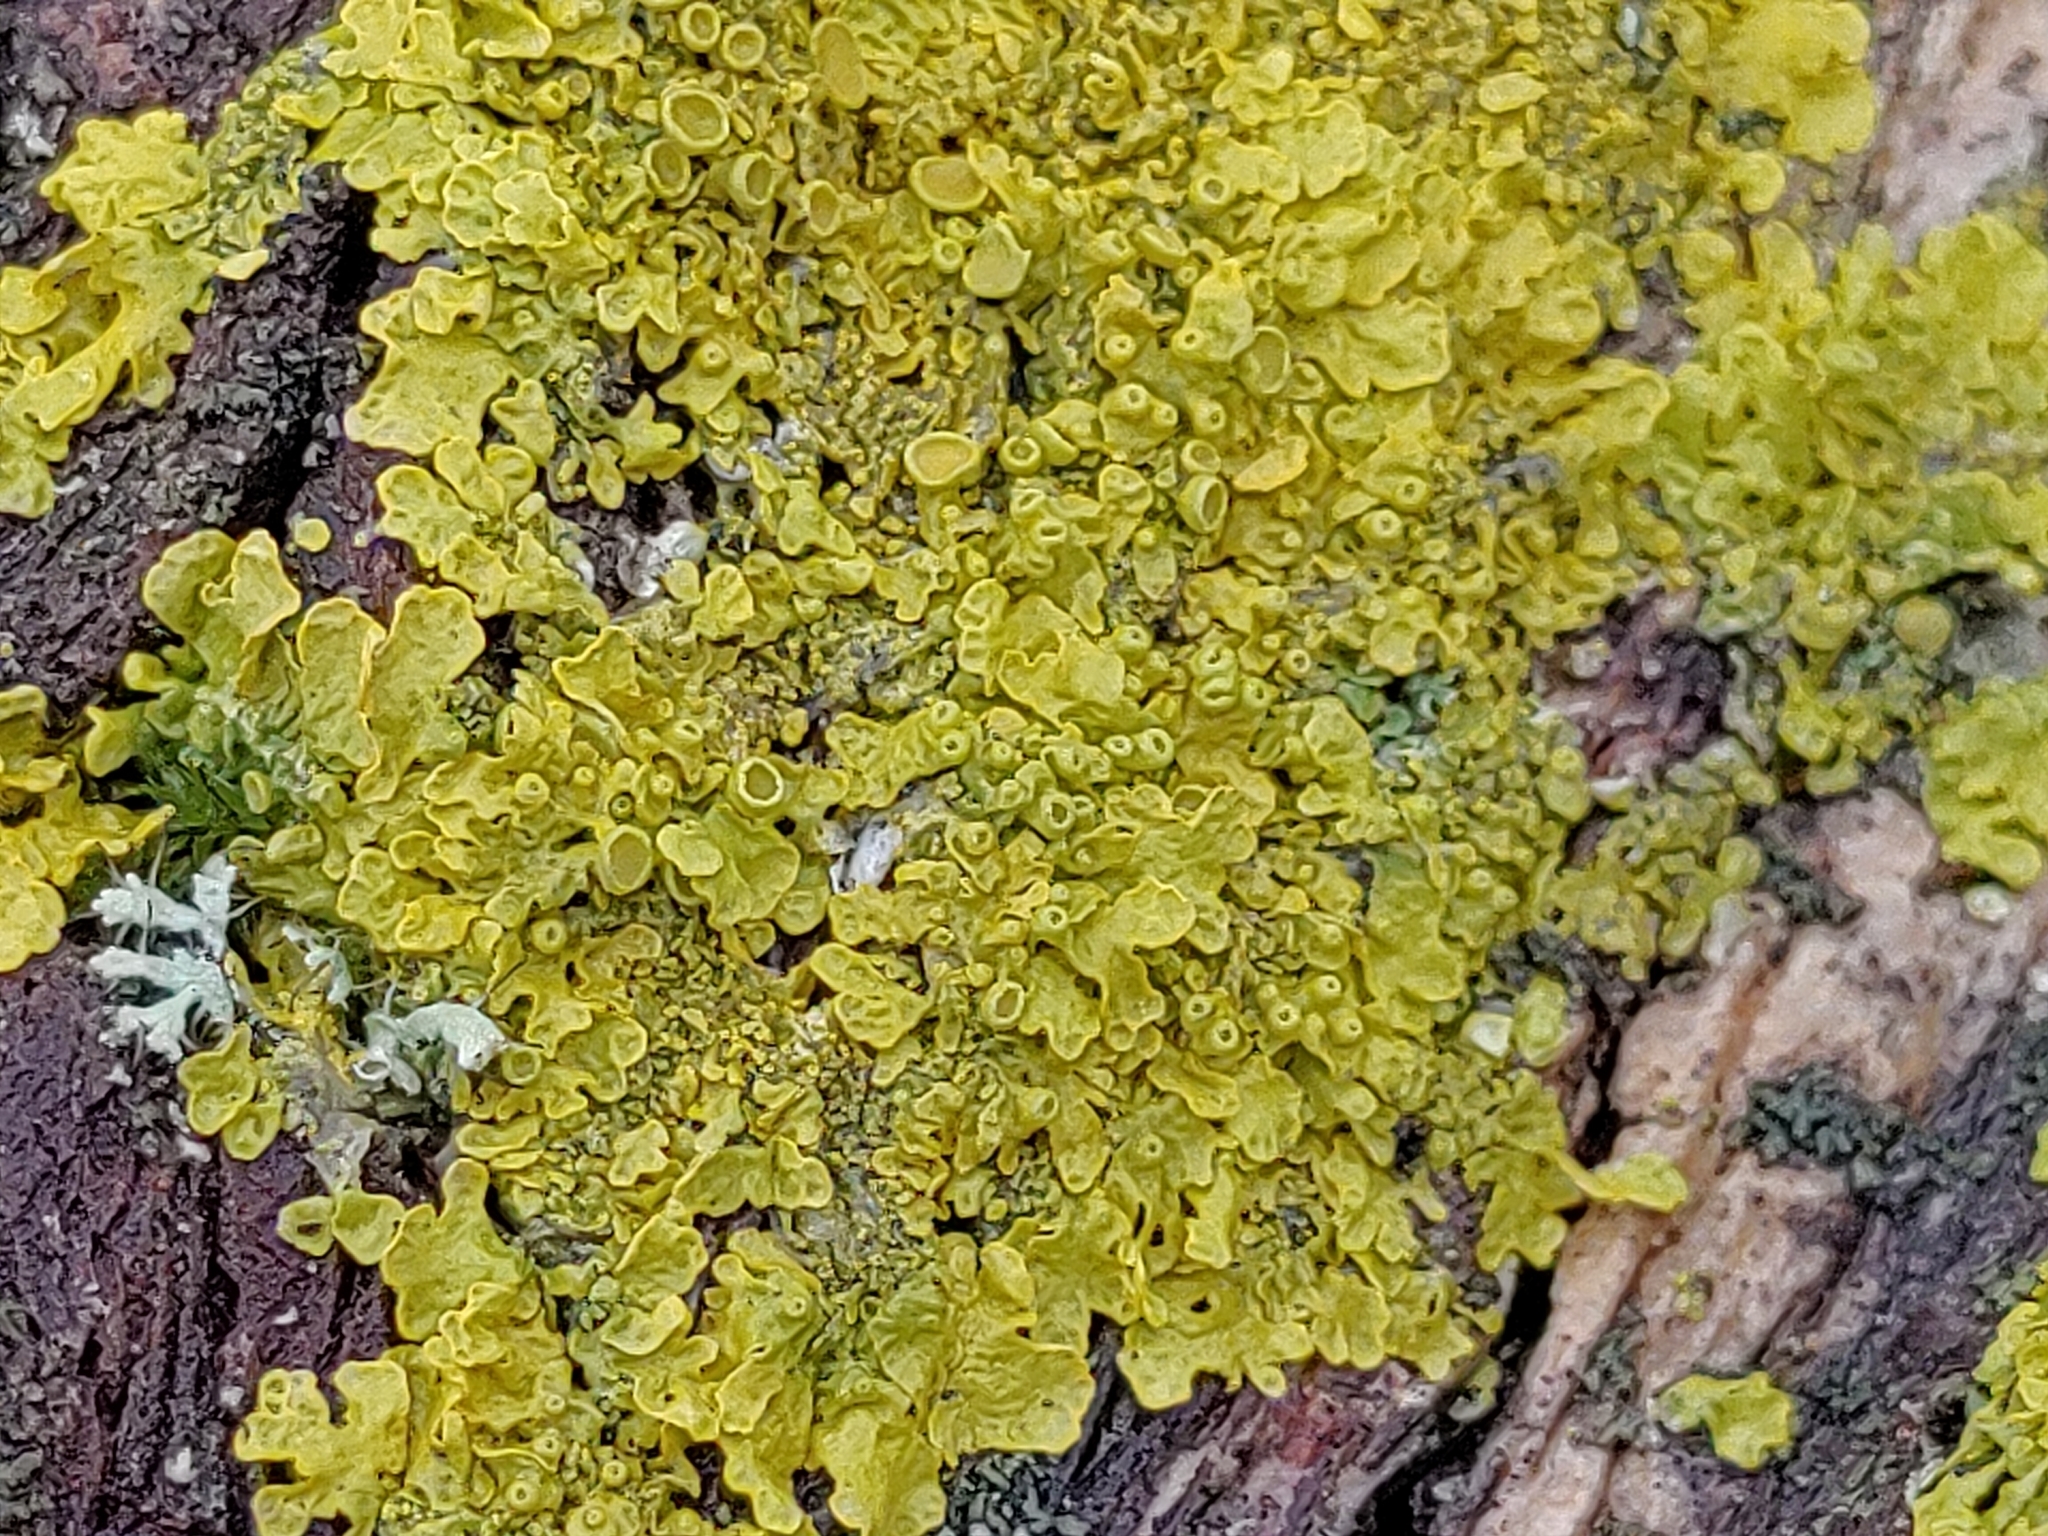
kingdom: Fungi
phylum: Ascomycota
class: Lecanoromycetes
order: Teloschistales
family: Teloschistaceae
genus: Xanthoria
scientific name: Xanthoria parietina
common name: Common orange lichen
